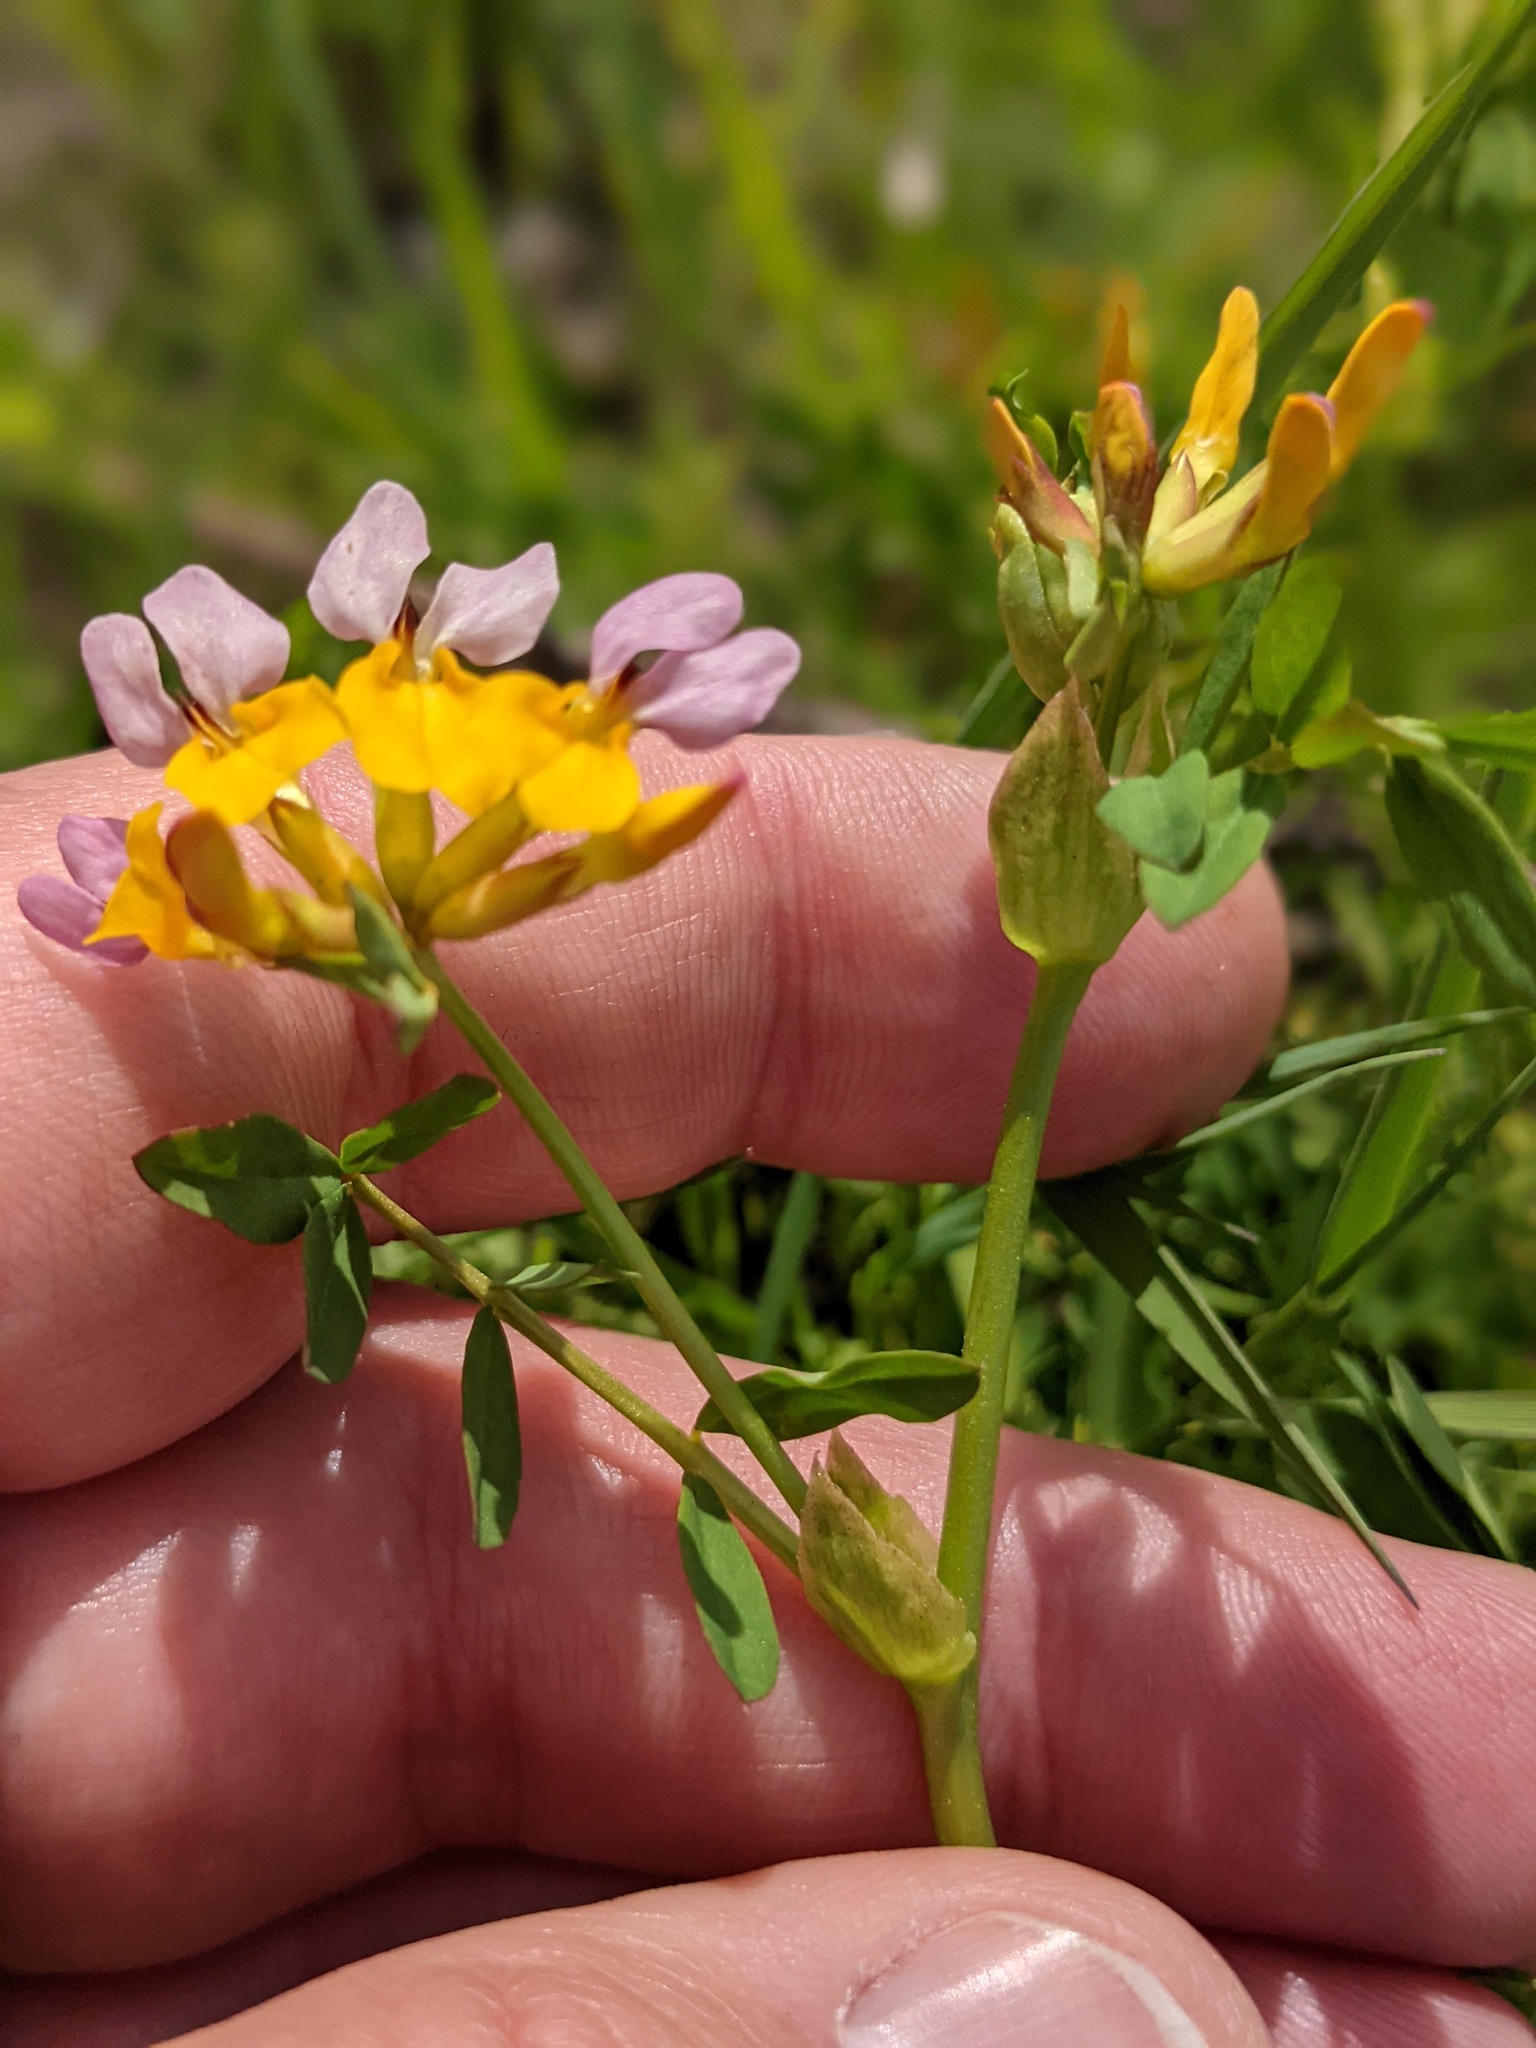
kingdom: Plantae
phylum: Tracheophyta
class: Magnoliopsida
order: Fabales
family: Fabaceae
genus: Hosackia
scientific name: Hosackia gracilis
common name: Seaside bird's-foot lotus
